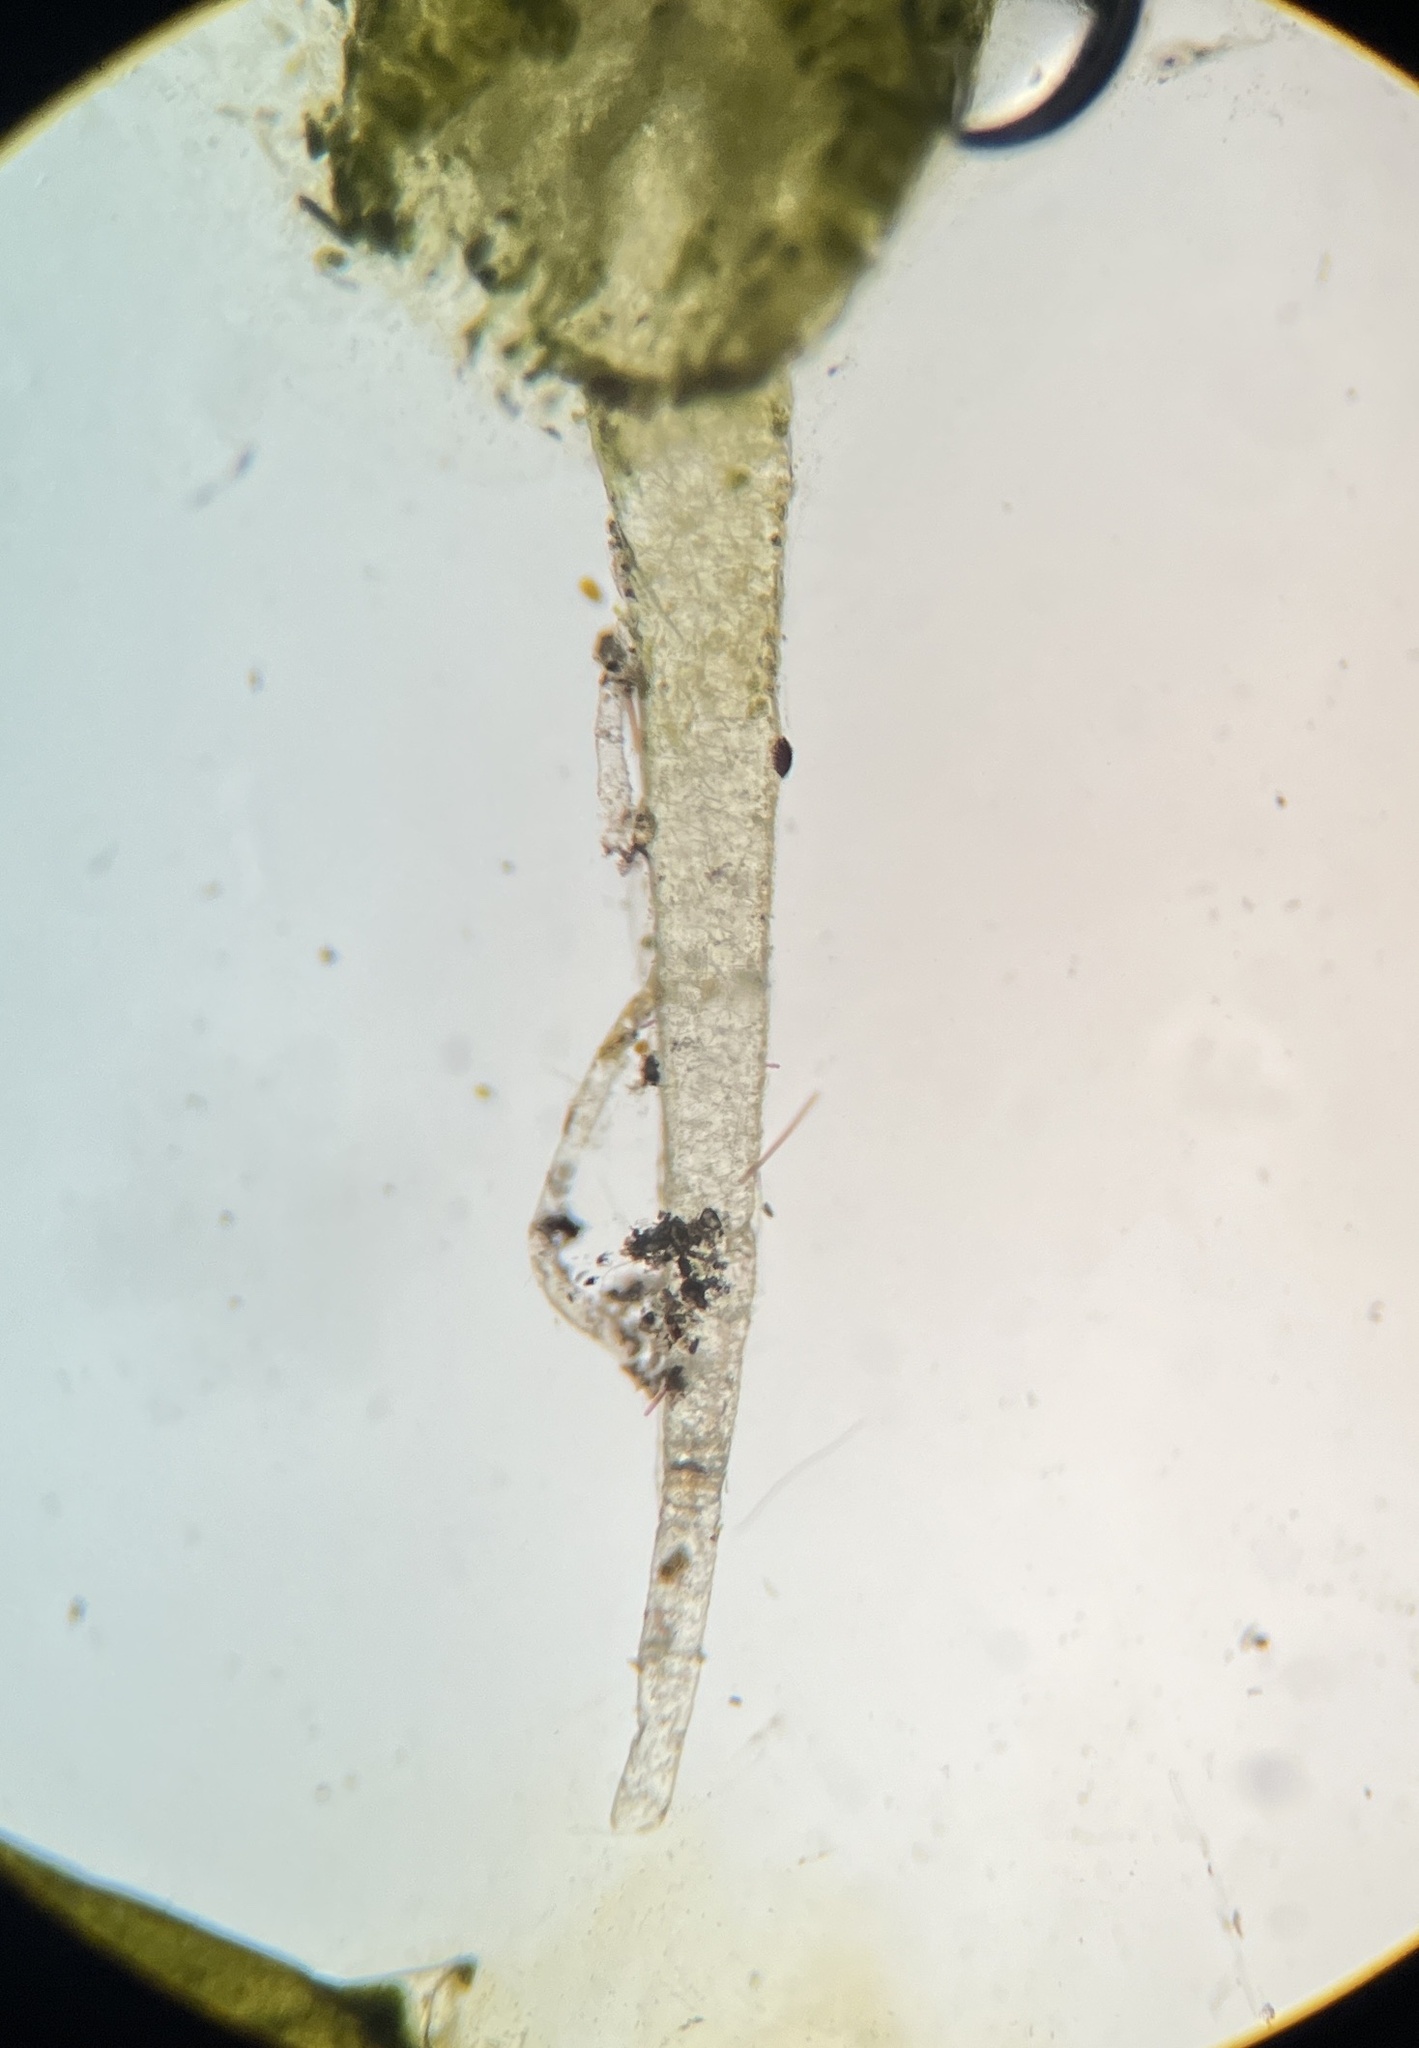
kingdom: Plantae
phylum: Chlorophyta
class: Ulvophyceae
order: Bryopsidales
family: Caulerpaceae
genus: Caulerpa
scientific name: Caulerpa mexicana
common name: Flat green feather algae
